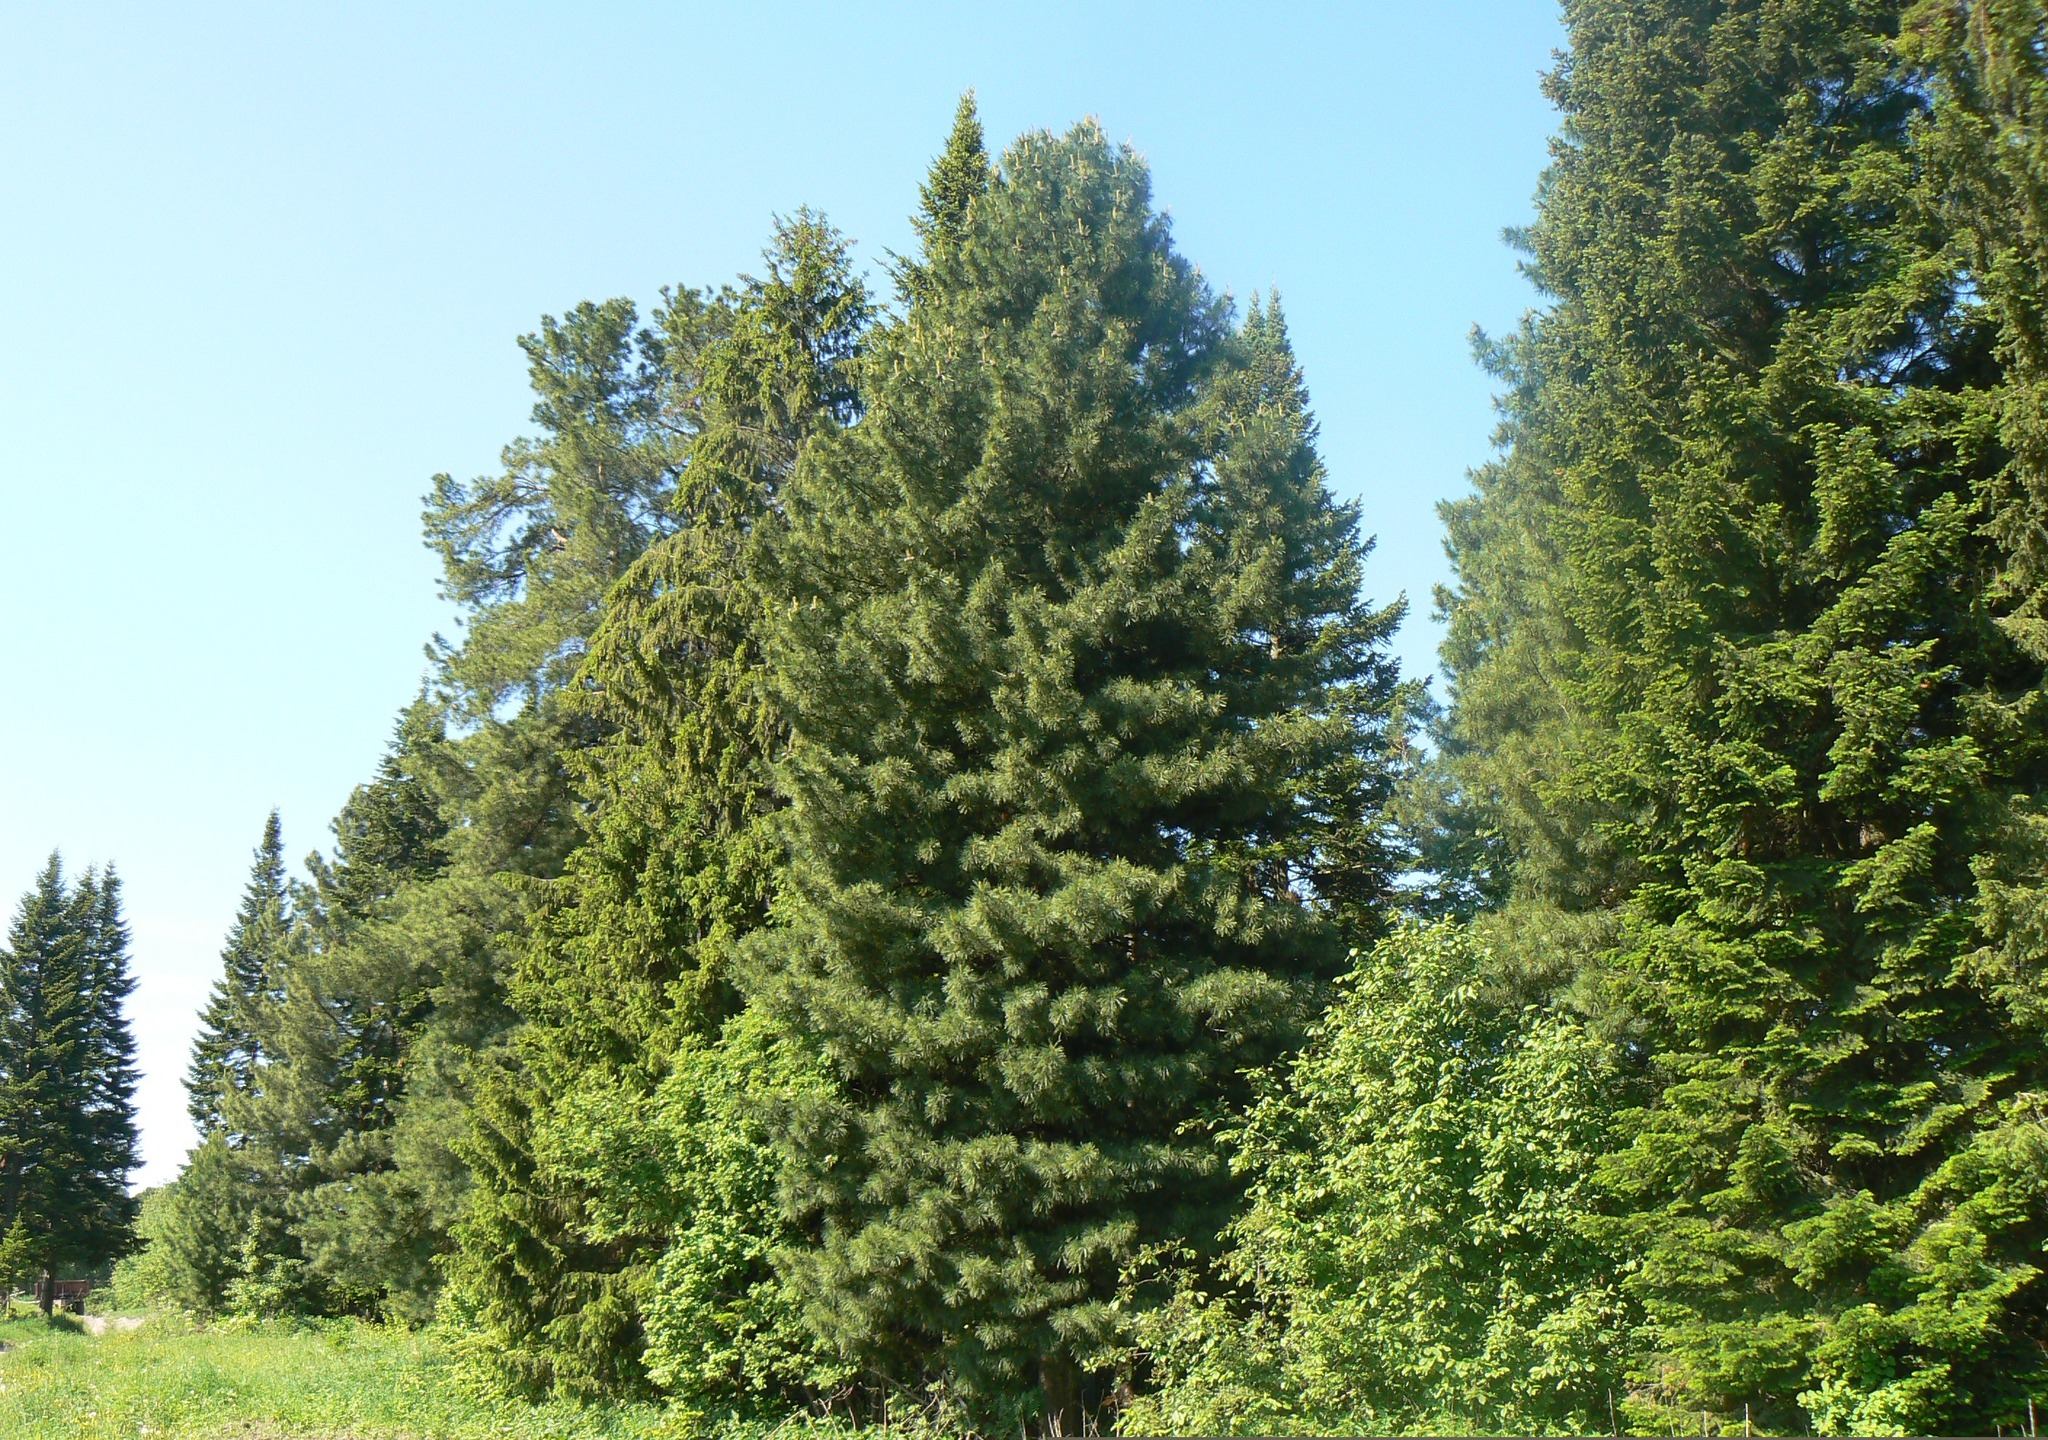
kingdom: Plantae
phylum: Tracheophyta
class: Pinopsida
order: Pinales
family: Pinaceae
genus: Abies
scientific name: Abies sibirica
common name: Siberian fir
